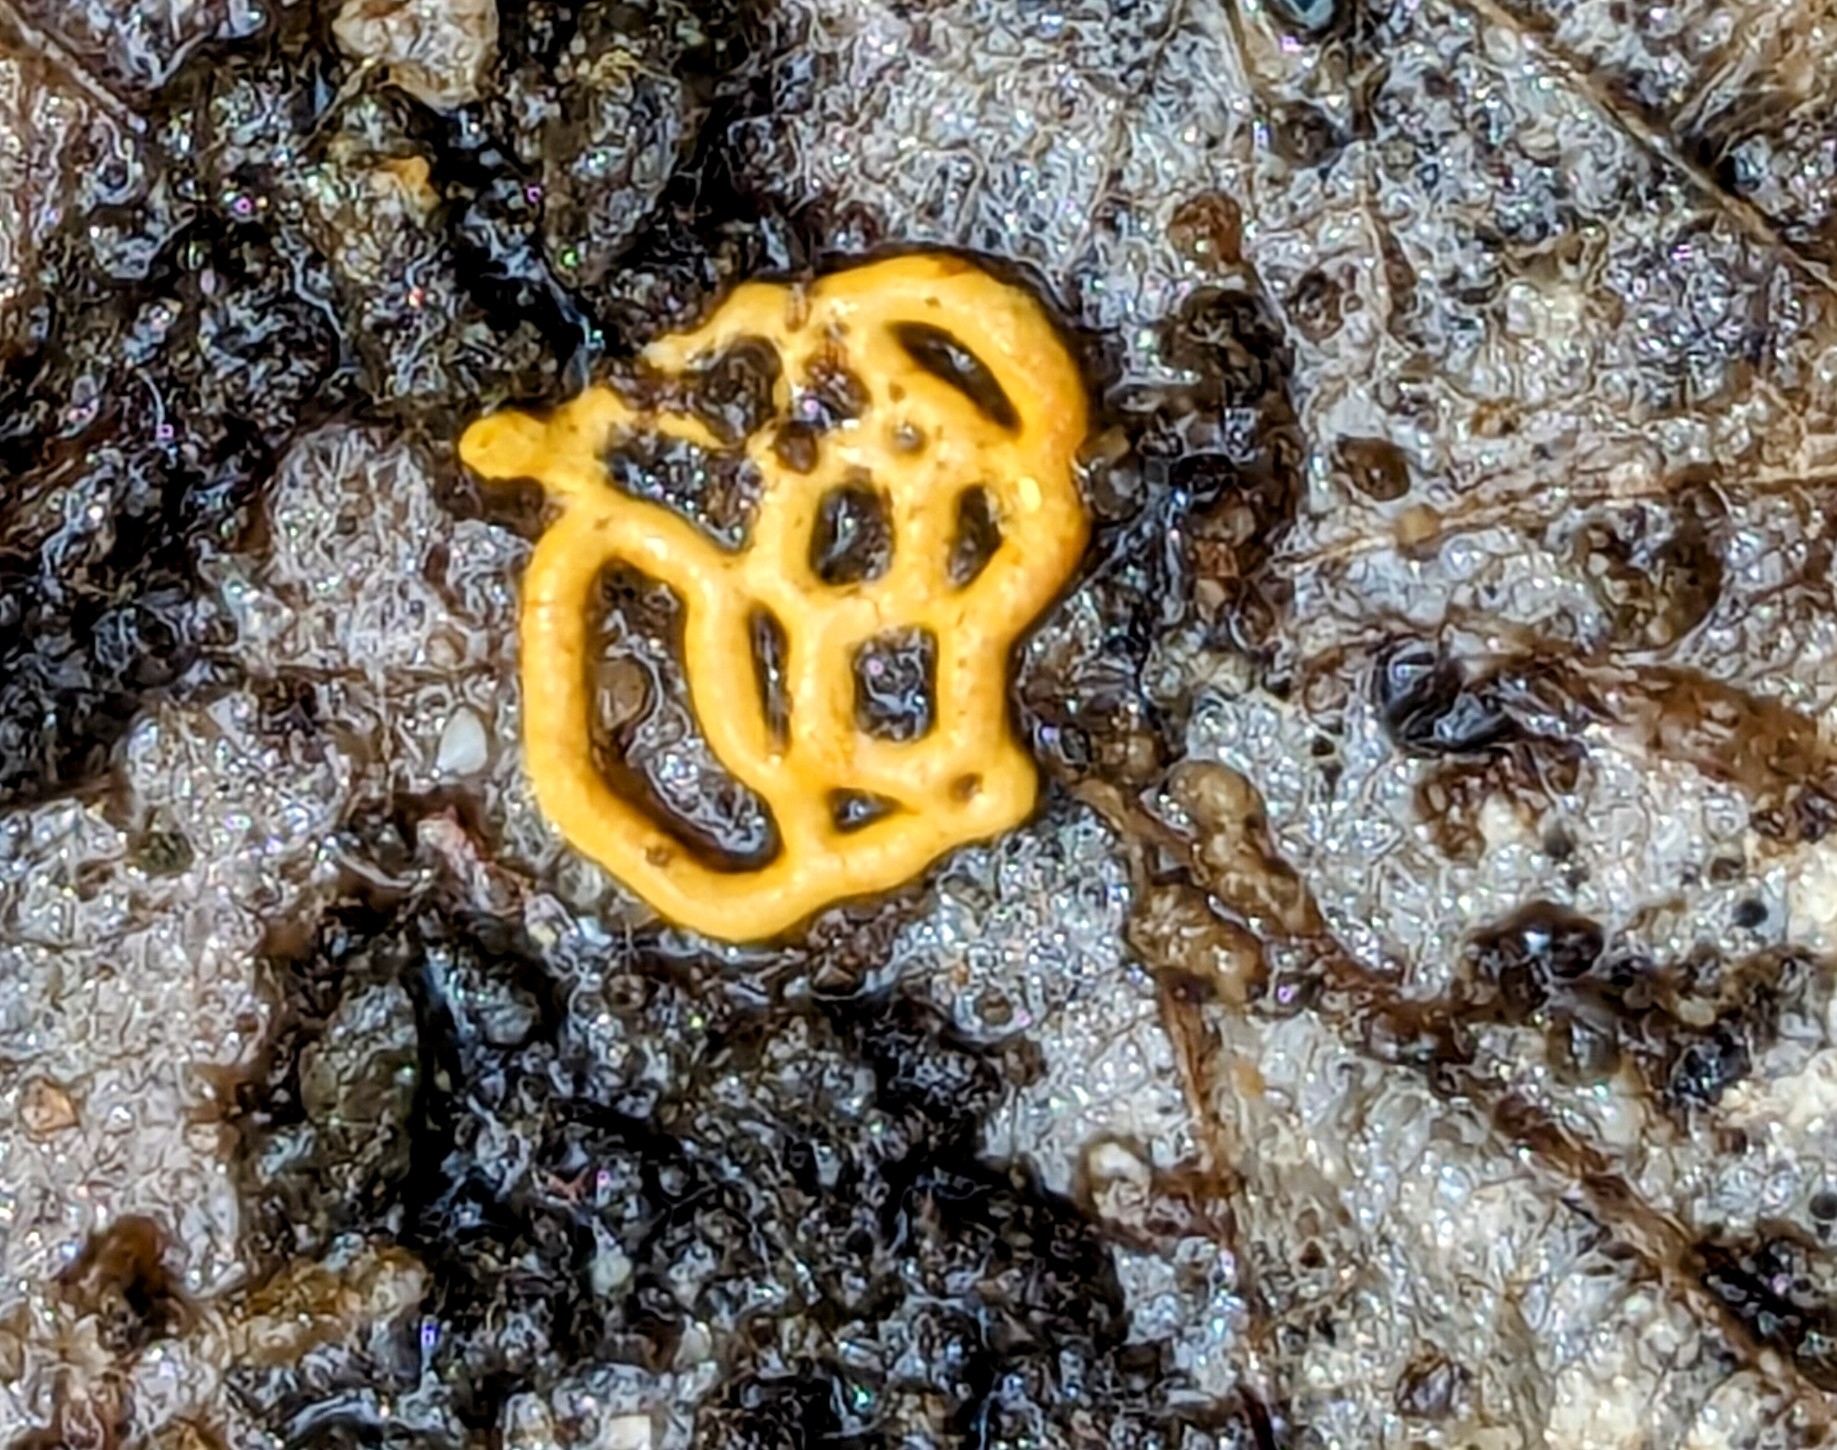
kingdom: Protozoa
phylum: Mycetozoa
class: Myxomycetes
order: Trichiales
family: Arcyriaceae
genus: Hemitrichia
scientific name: Hemitrichia serpula
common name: Pretzel slime mold
